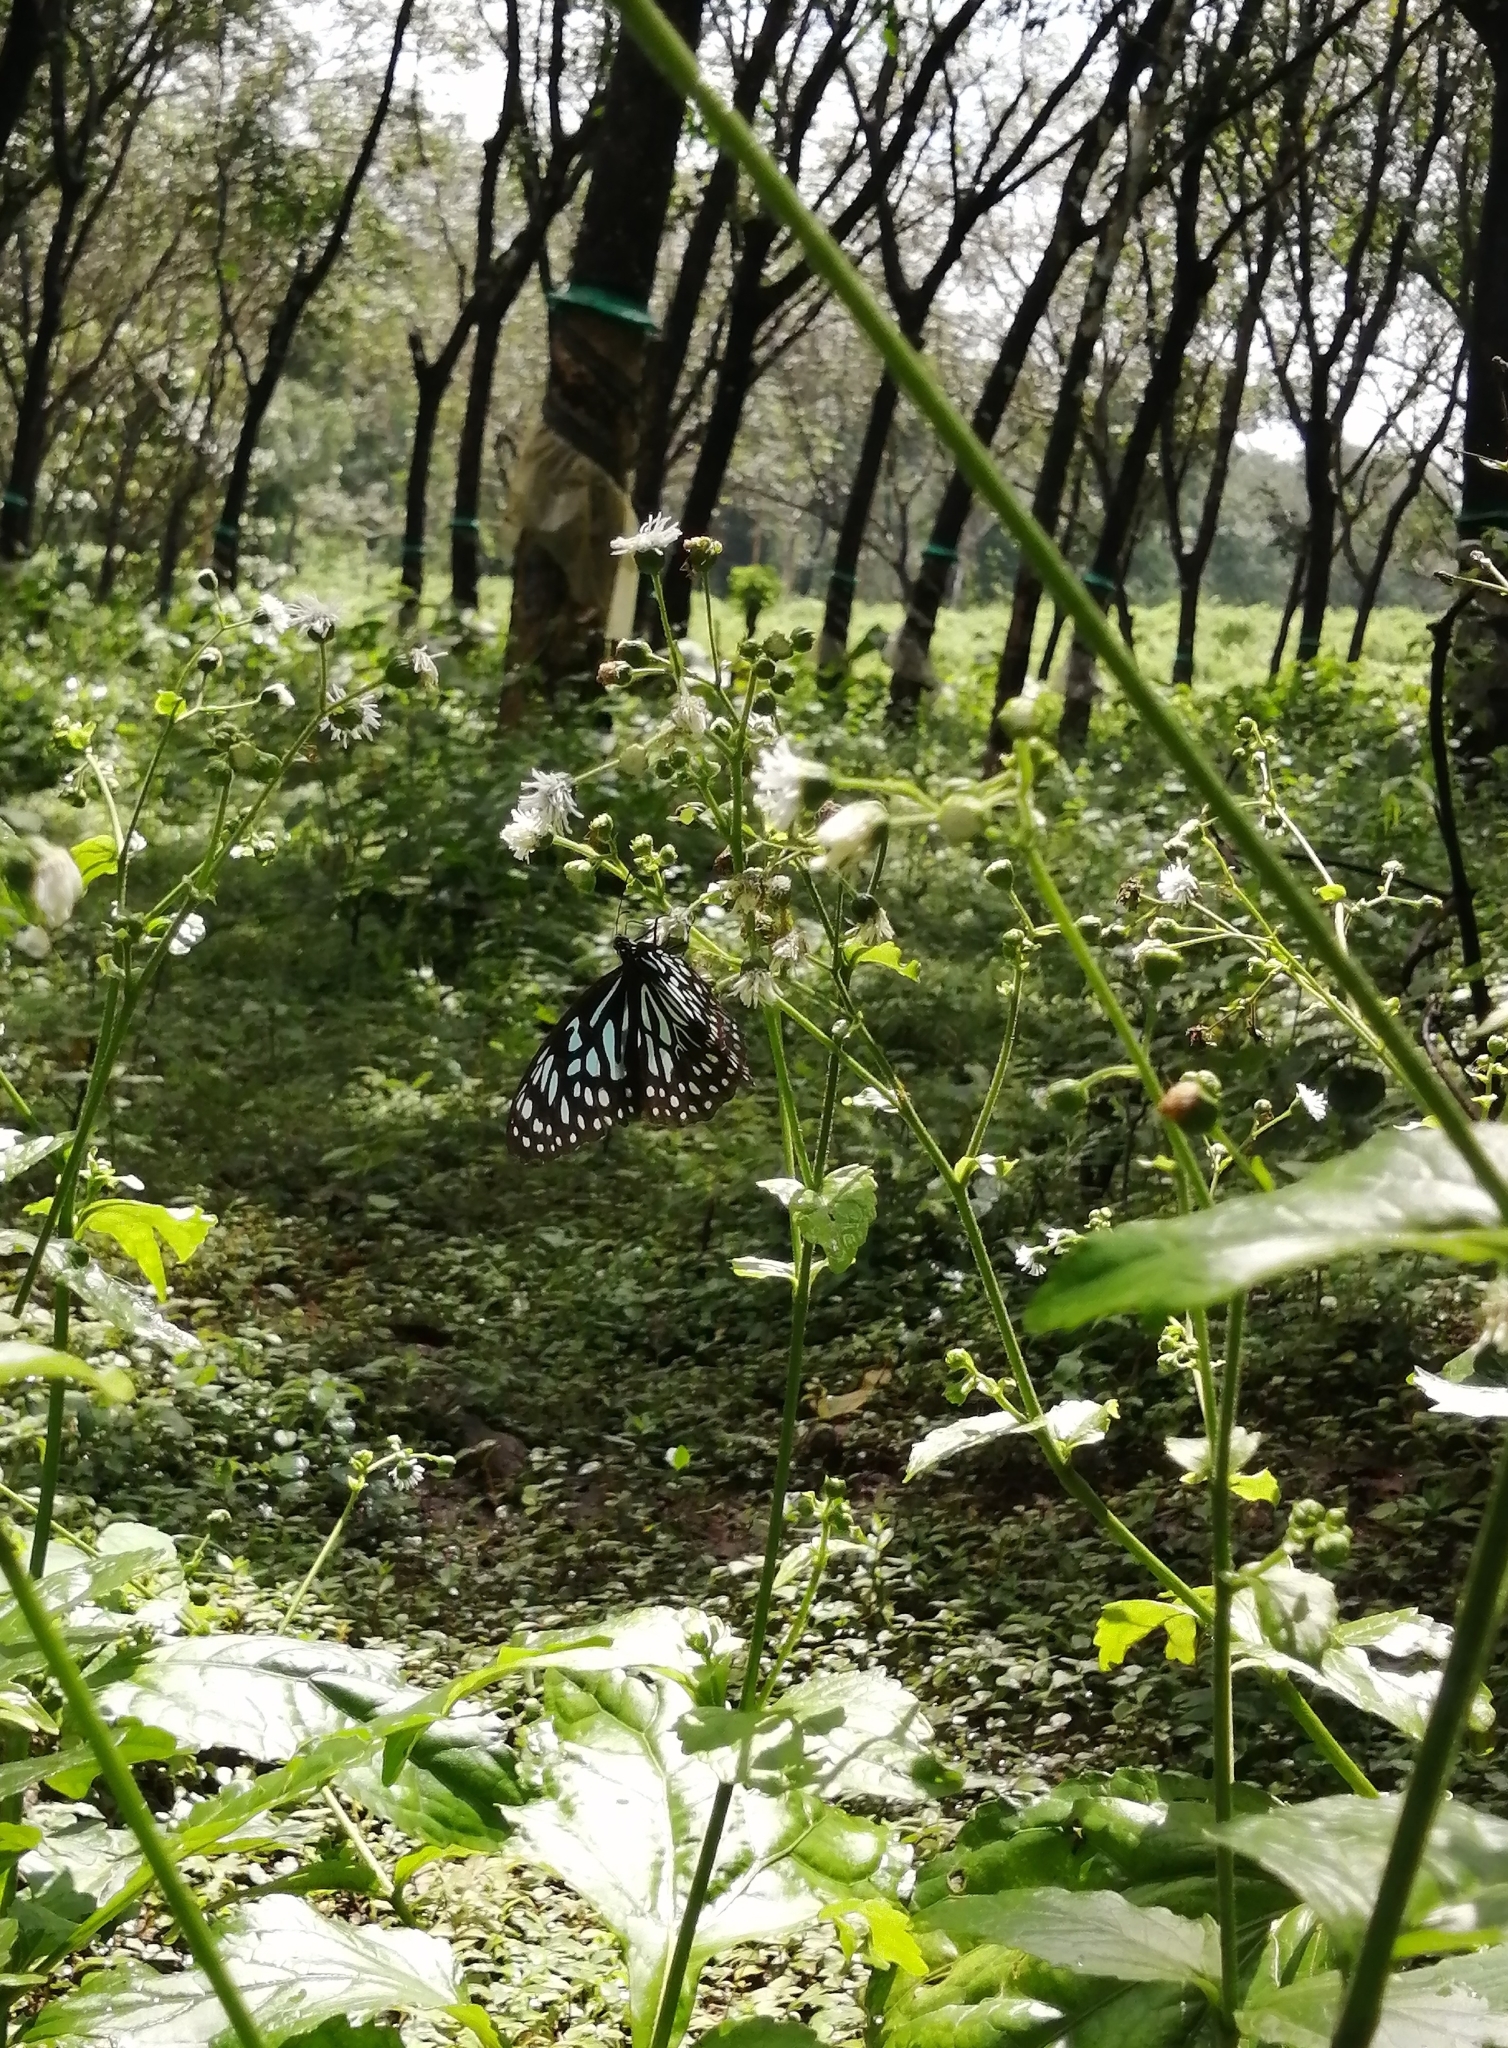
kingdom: Animalia
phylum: Arthropoda
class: Insecta
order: Lepidoptera
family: Nymphalidae
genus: Tirumala
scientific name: Tirumala septentrionis
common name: Dark blue tiger butterfly
